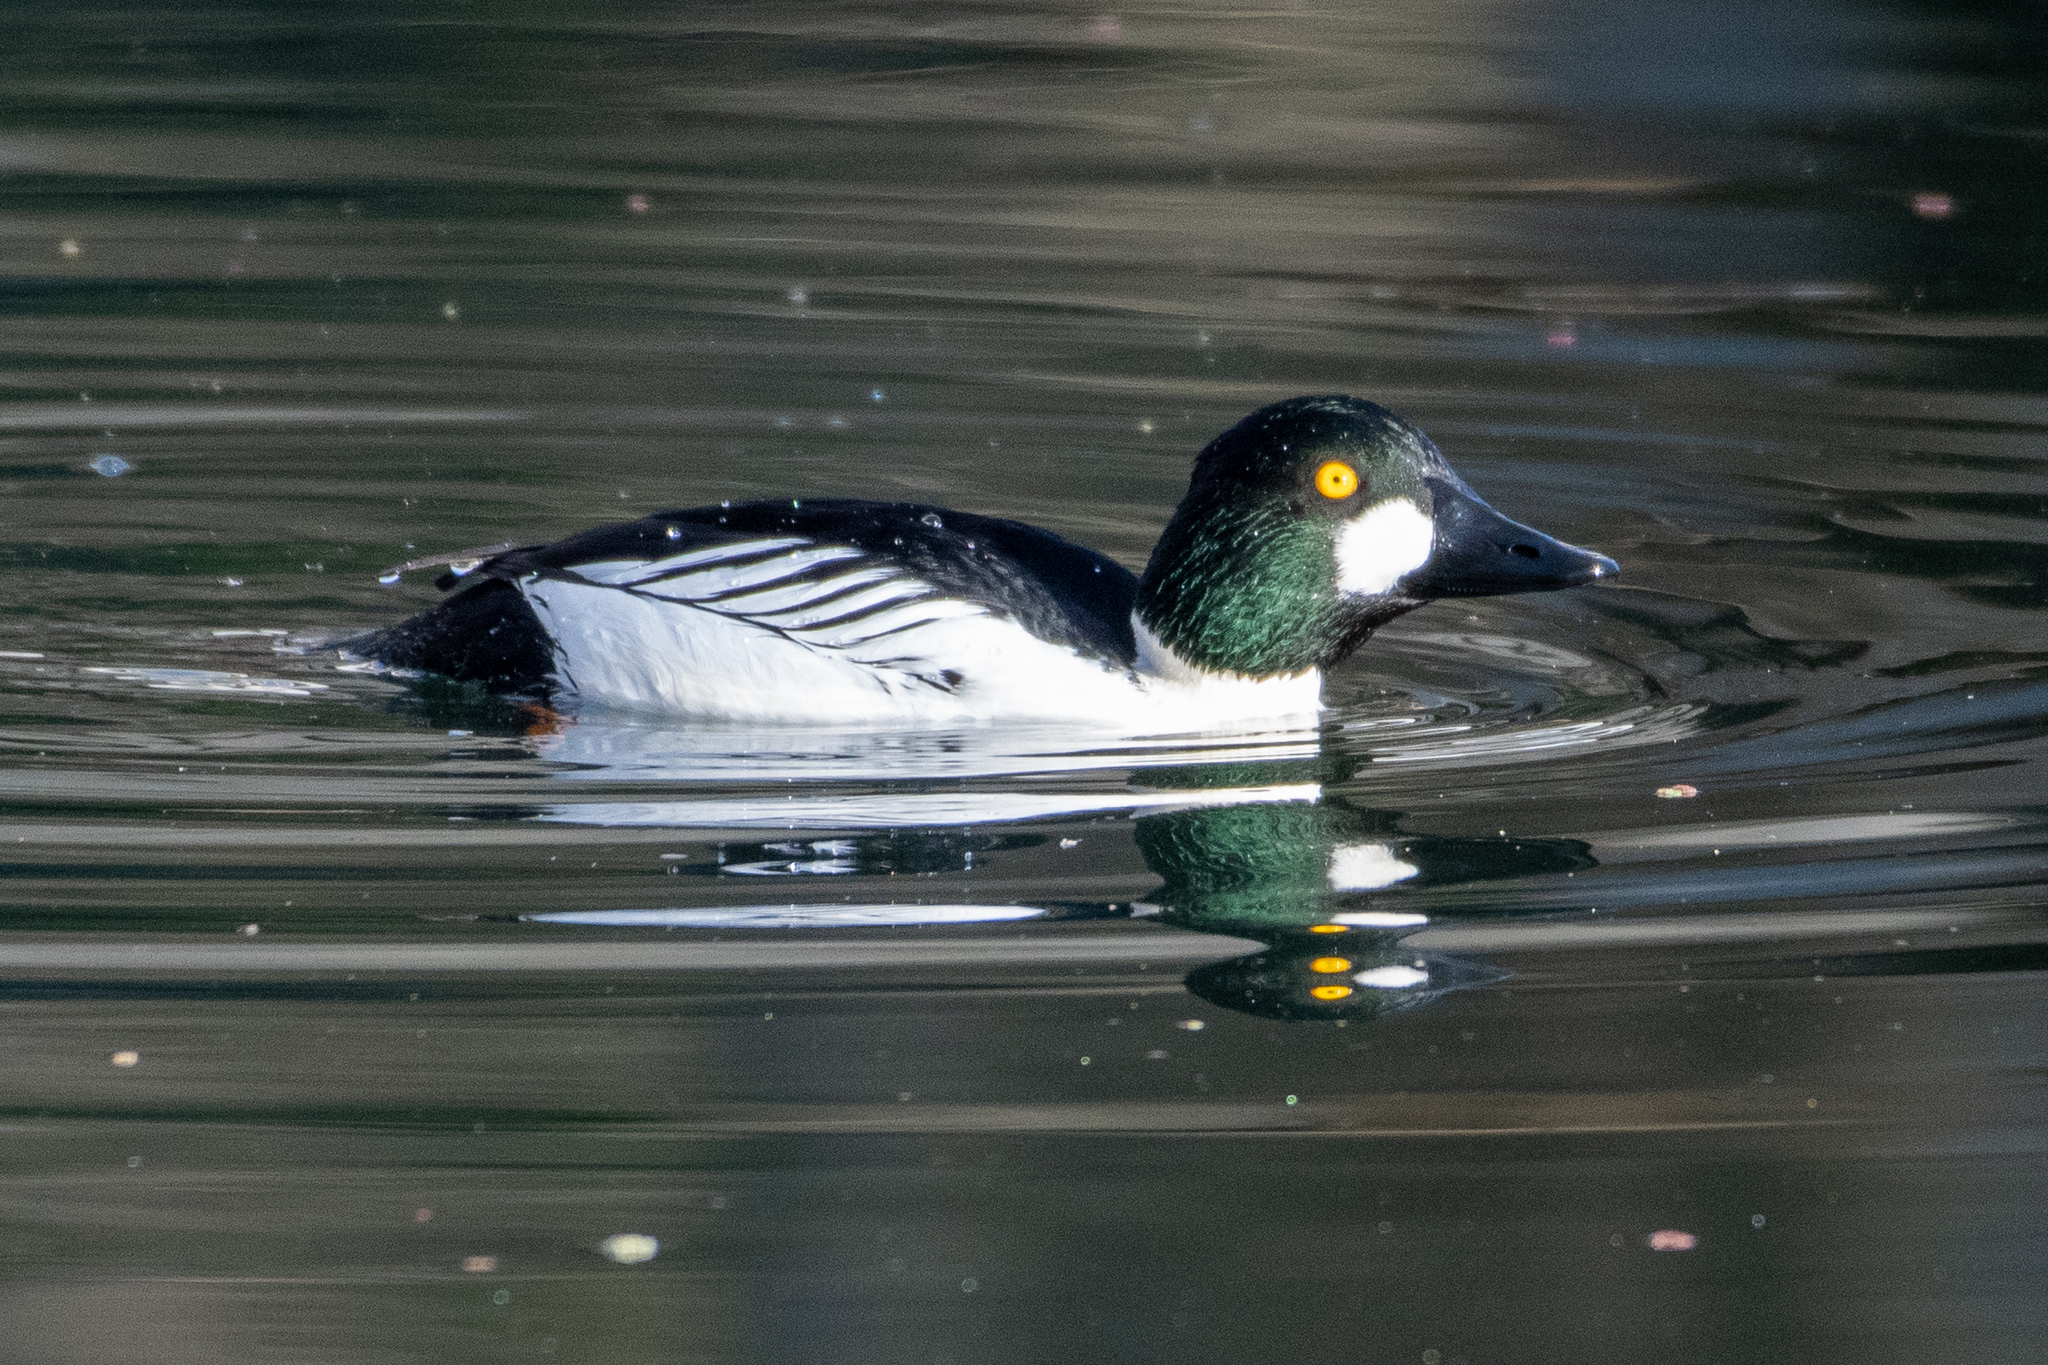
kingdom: Animalia
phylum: Chordata
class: Aves
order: Anseriformes
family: Anatidae
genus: Bucephala
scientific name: Bucephala clangula
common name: Common goldeneye
